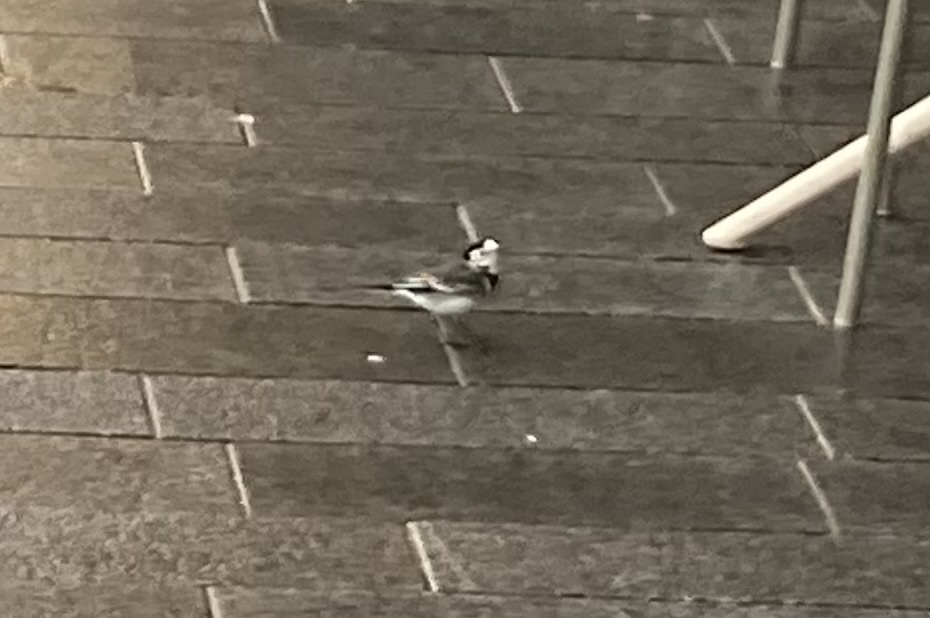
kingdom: Animalia
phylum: Chordata
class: Aves
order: Passeriformes
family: Motacillidae
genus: Motacilla
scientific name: Motacilla alba
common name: White wagtail
